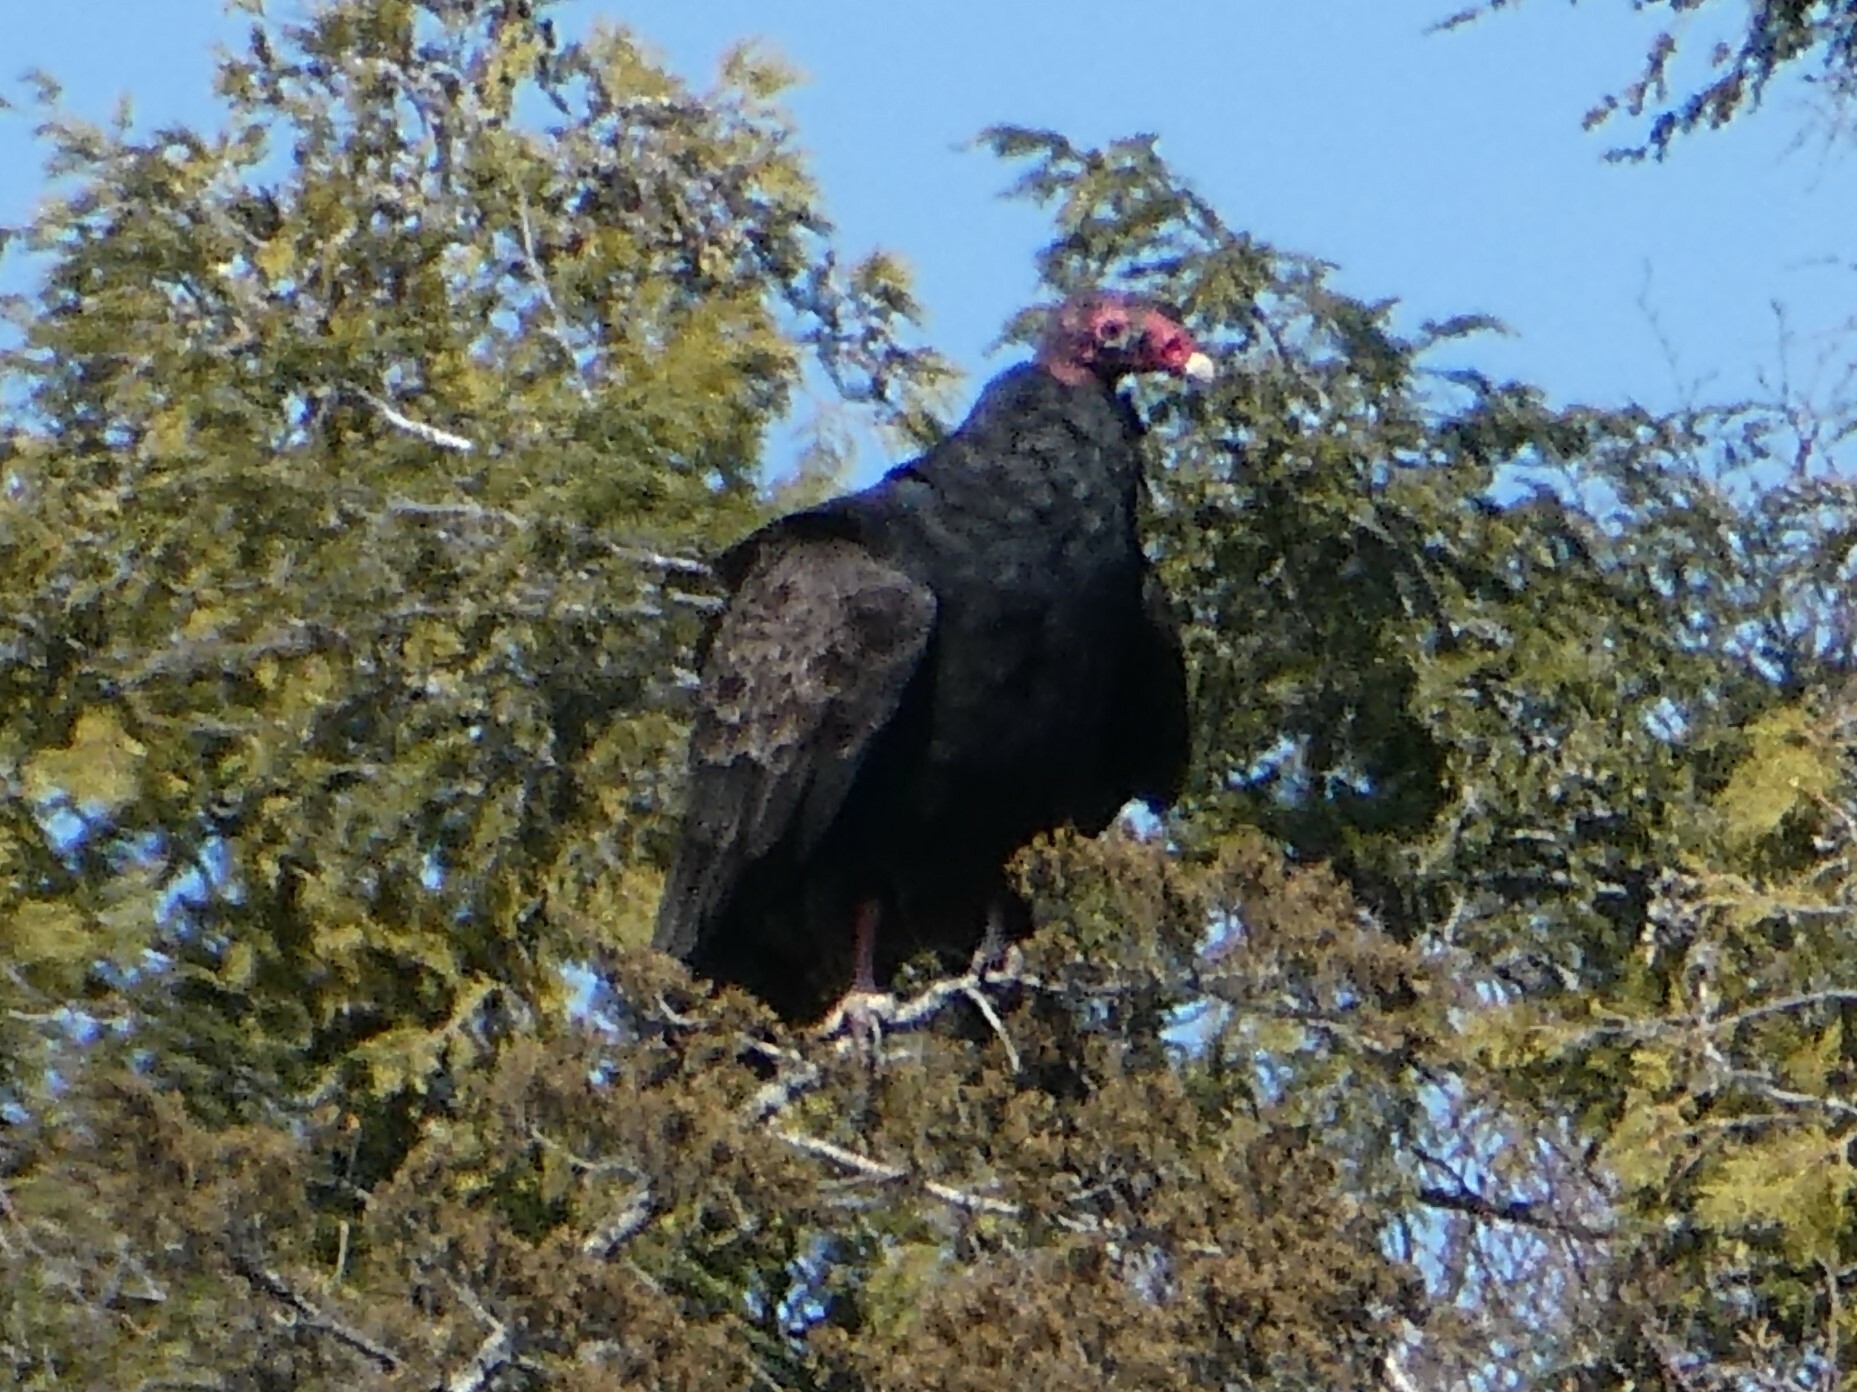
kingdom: Animalia
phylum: Chordata
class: Aves
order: Accipitriformes
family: Cathartidae
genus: Cathartes
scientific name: Cathartes aura
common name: Turkey vulture
